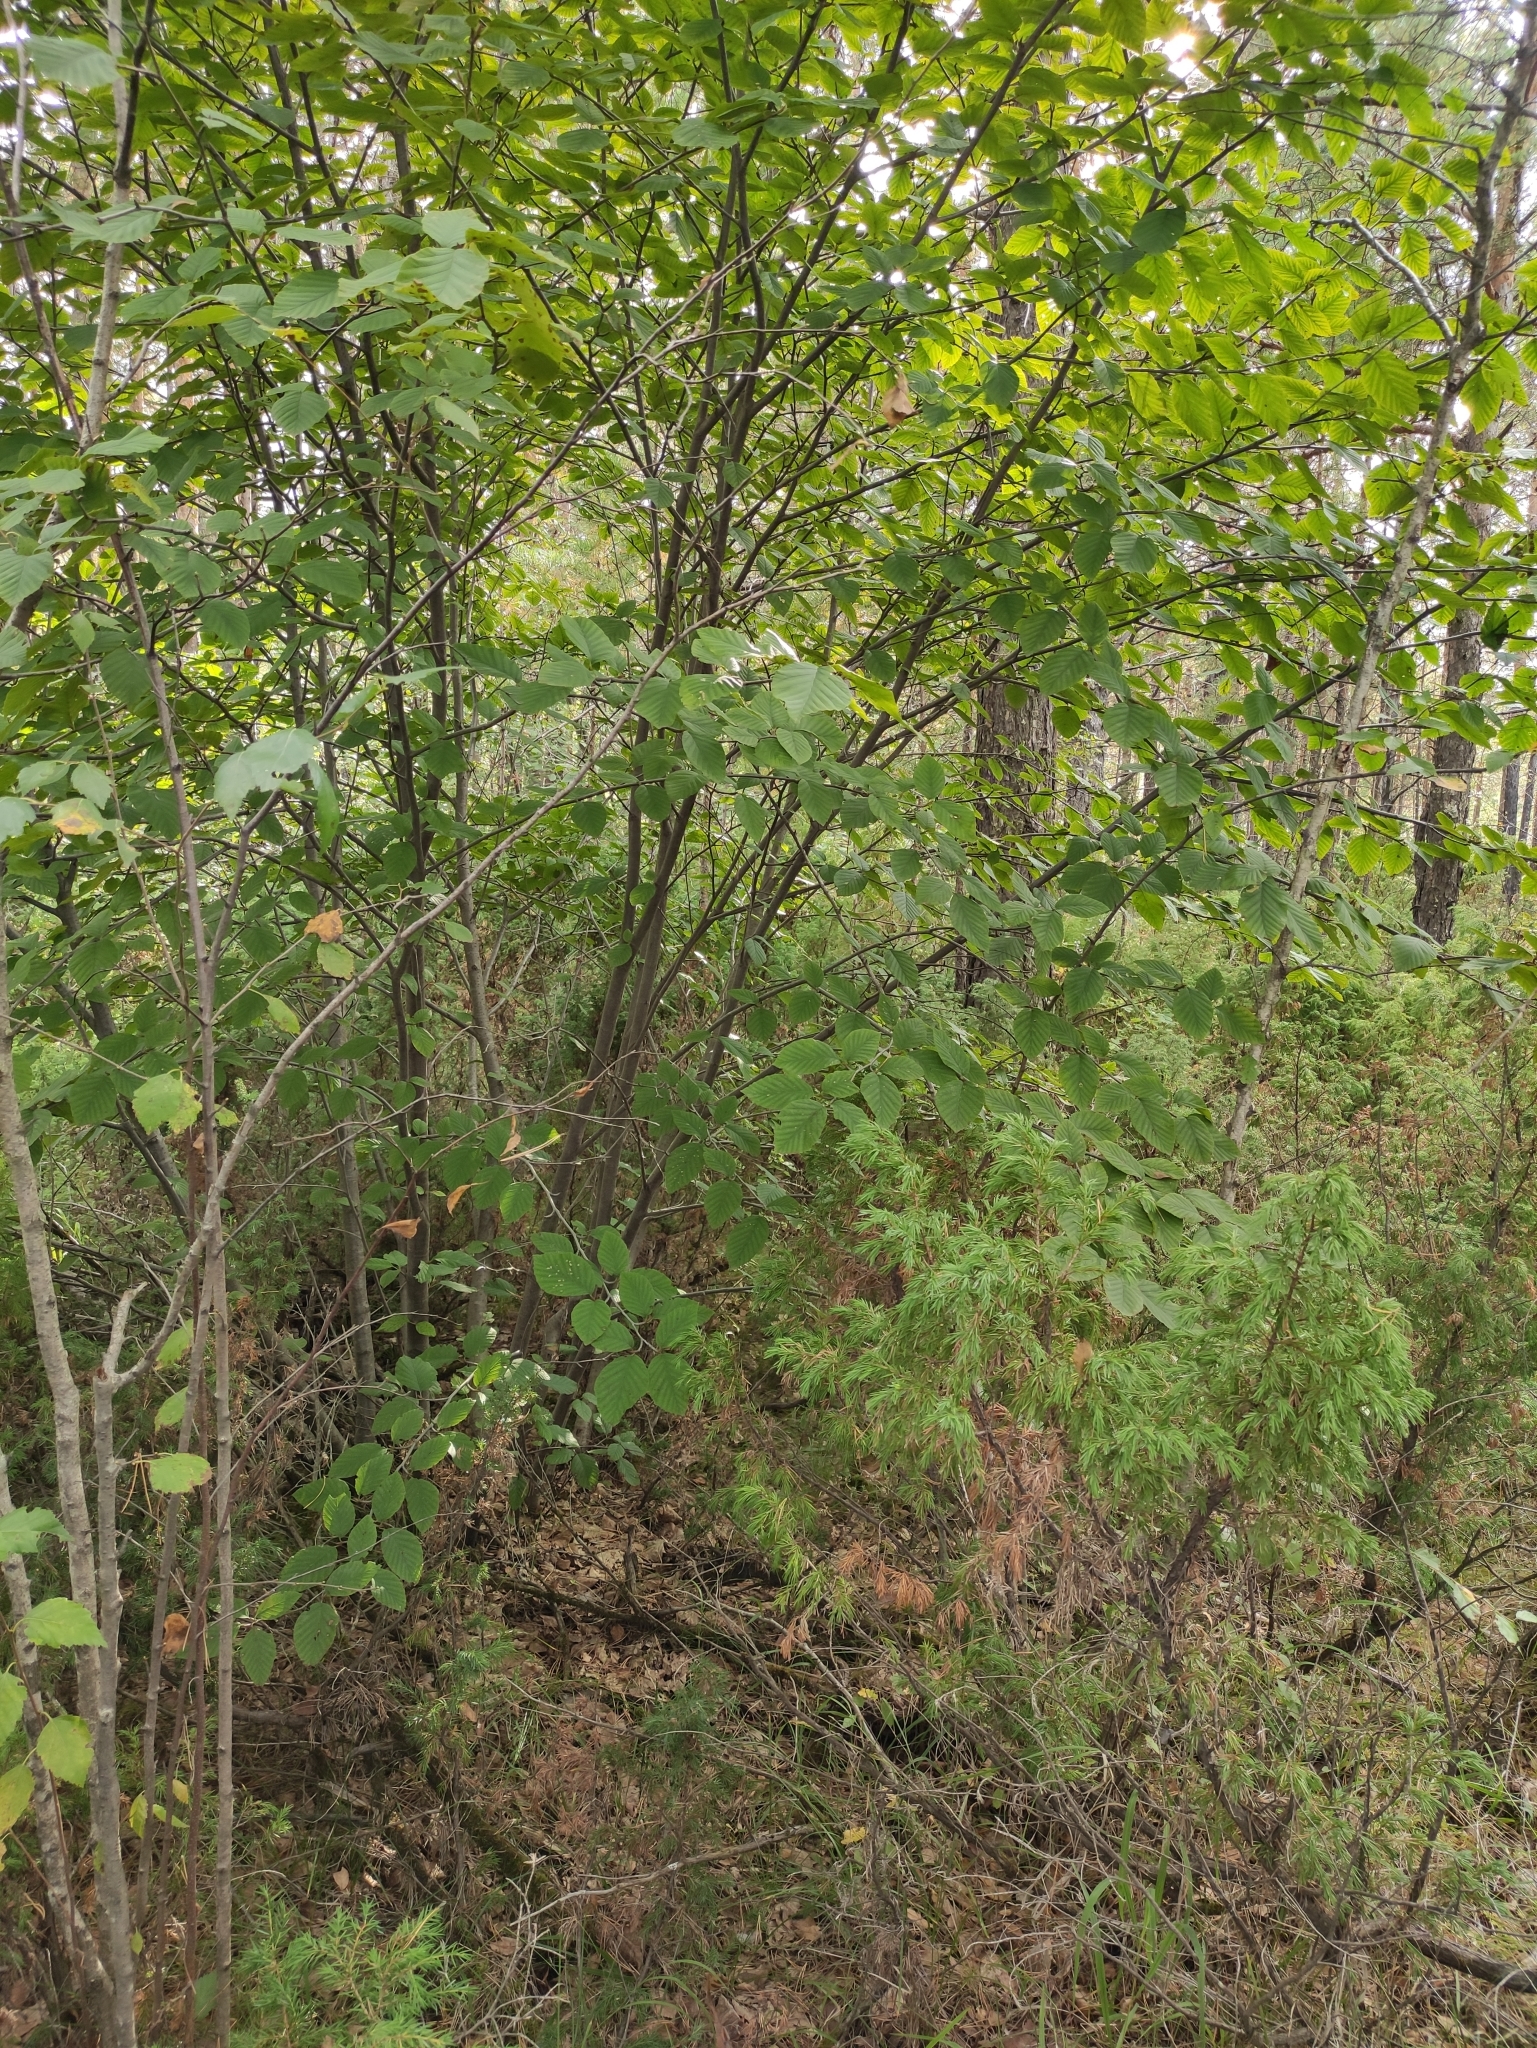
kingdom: Plantae
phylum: Tracheophyta
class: Magnoliopsida
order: Fagales
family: Betulaceae
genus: Alnus
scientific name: Alnus alnobetula
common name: Green alder
